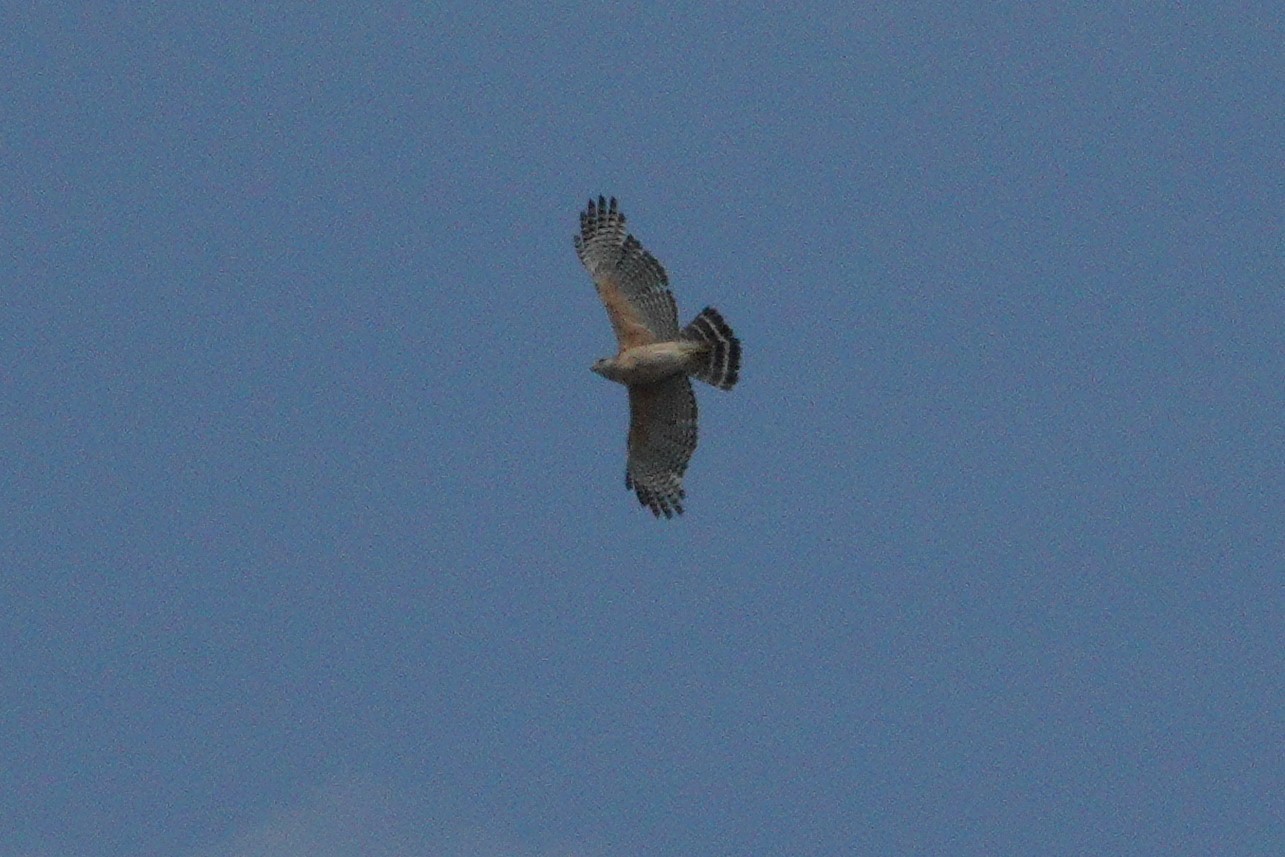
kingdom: Animalia
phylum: Chordata
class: Aves
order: Accipitriformes
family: Accipitridae
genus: Buteo
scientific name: Buteo lineatus
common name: Red-shouldered hawk
